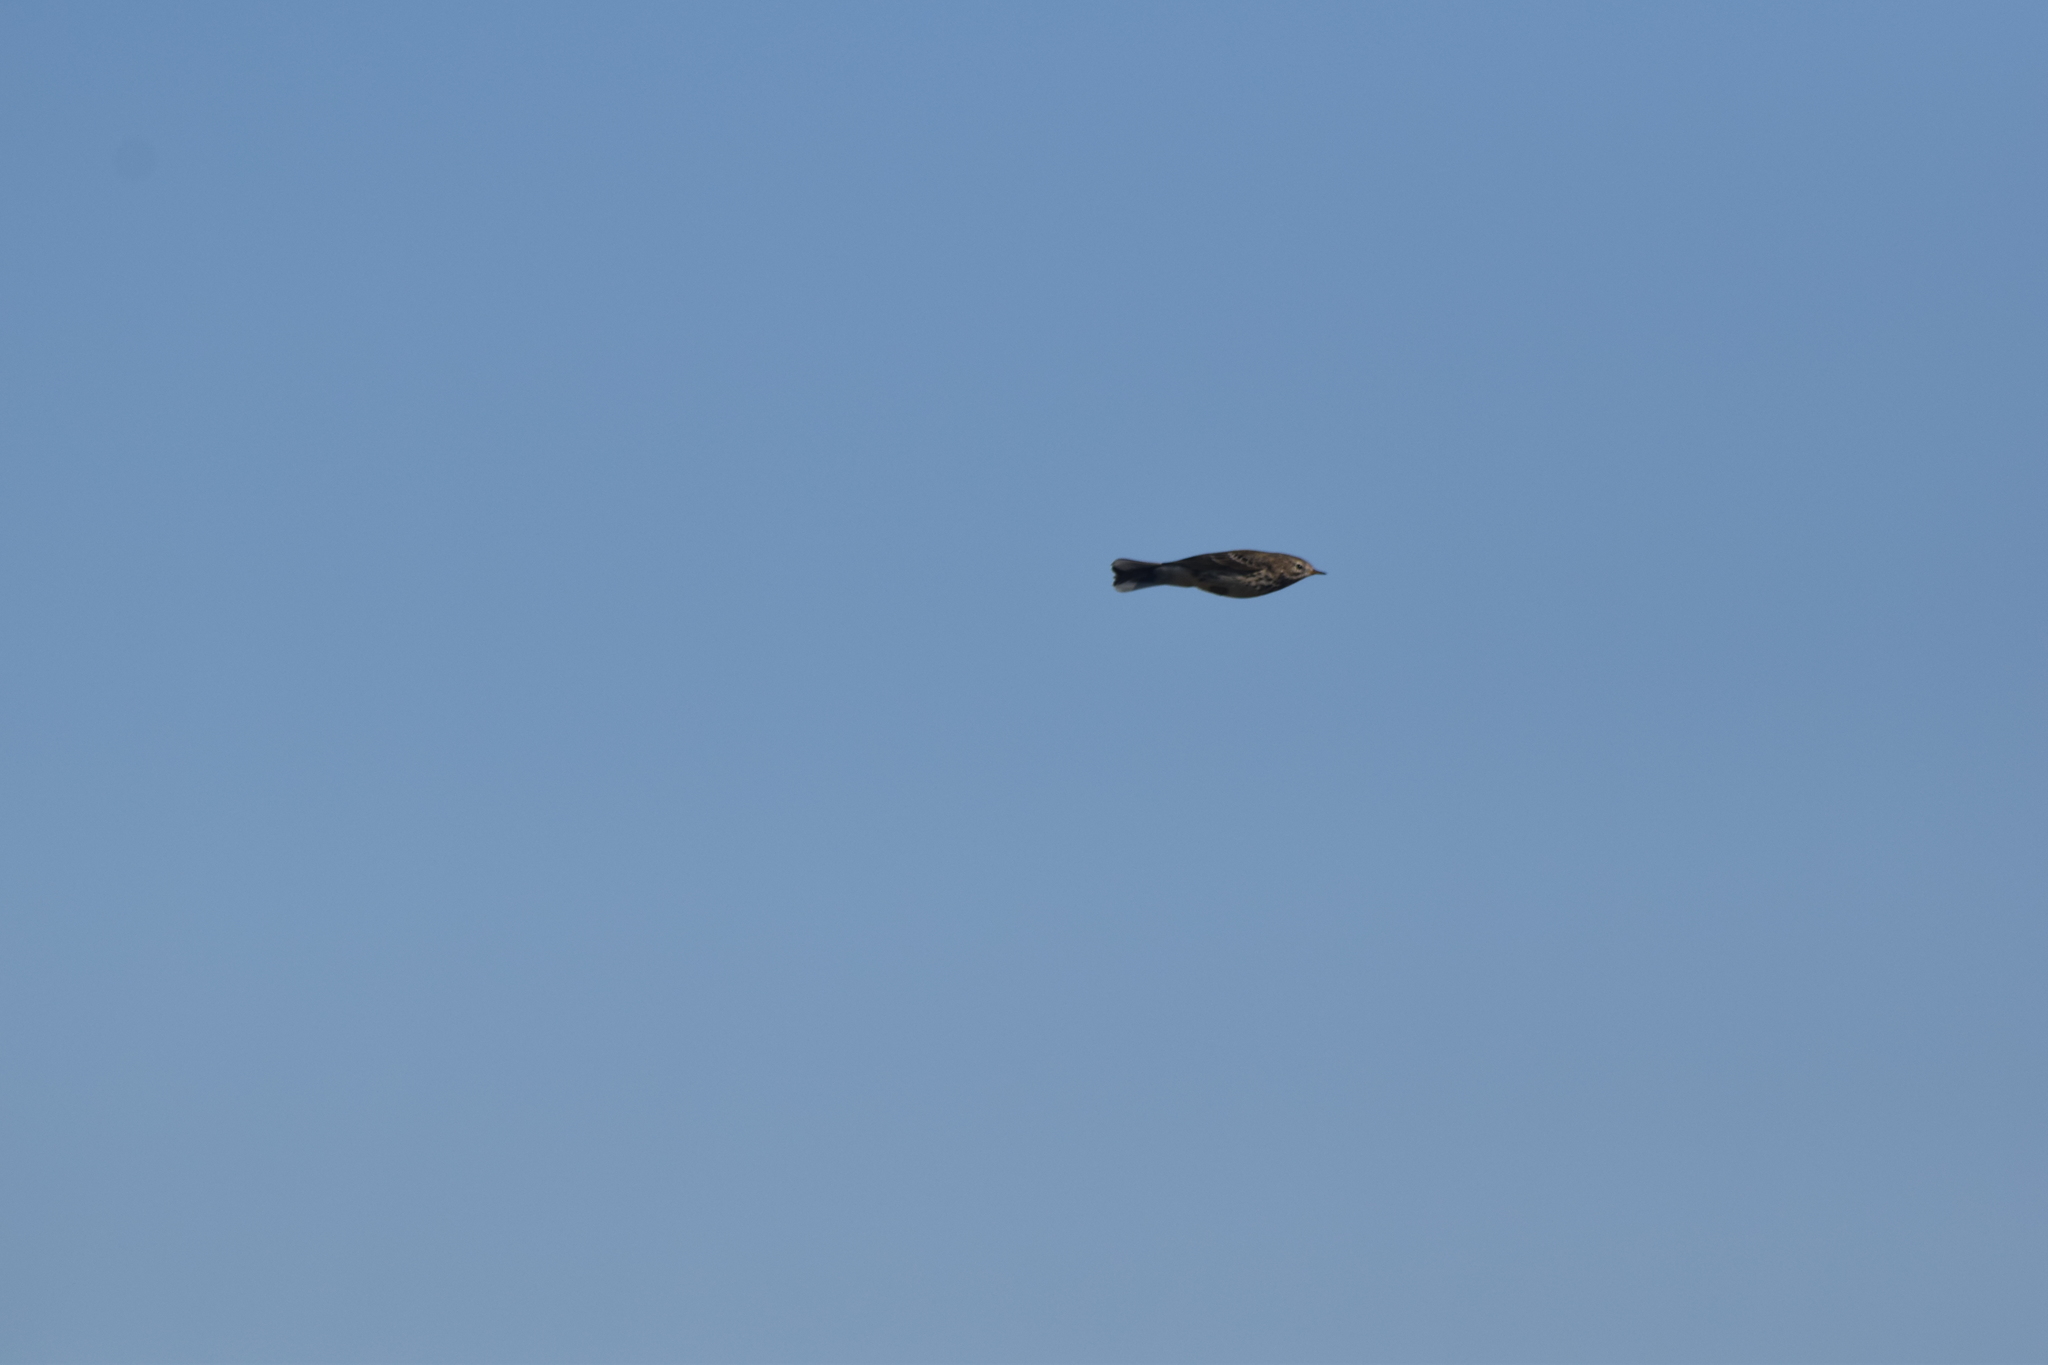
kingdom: Animalia
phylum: Chordata
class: Aves
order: Passeriformes
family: Motacillidae
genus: Anthus
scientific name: Anthus pratensis
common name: Meadow pipit
